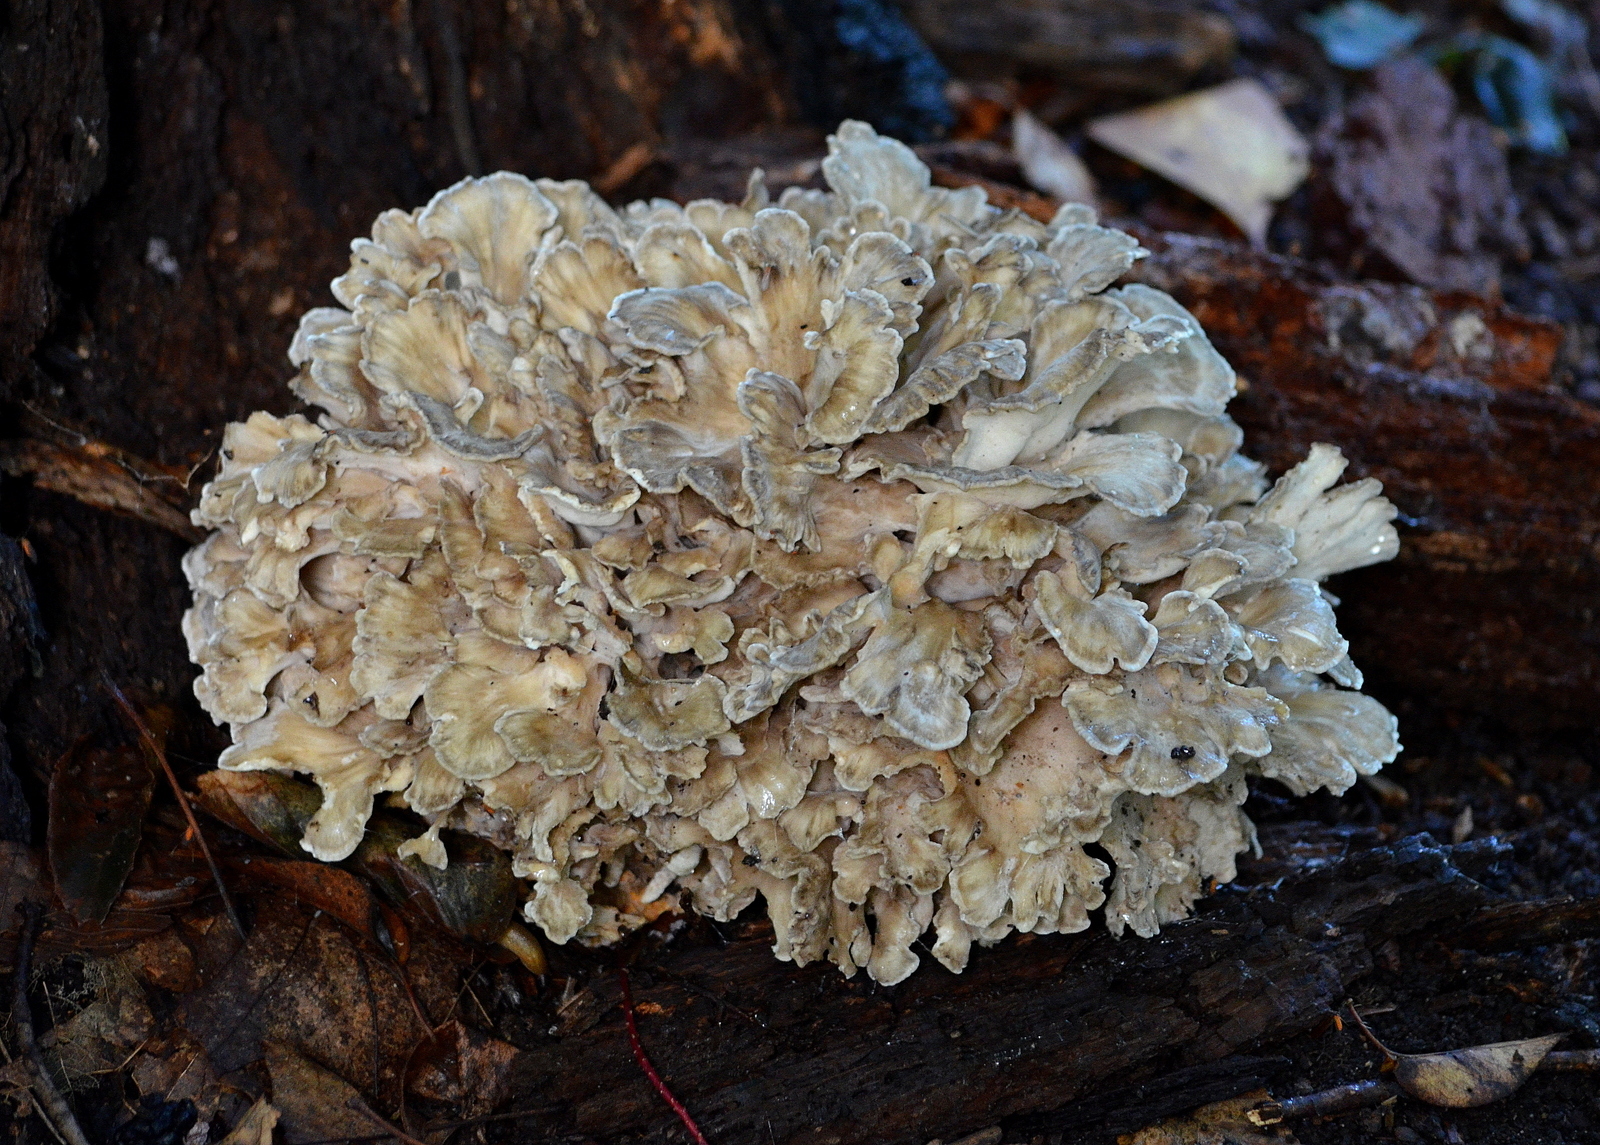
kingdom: Fungi
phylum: Basidiomycota
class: Agaricomycetes
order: Polyporales
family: Grifolaceae
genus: Grifola
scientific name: Grifola frondosa
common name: Hen of the woods
